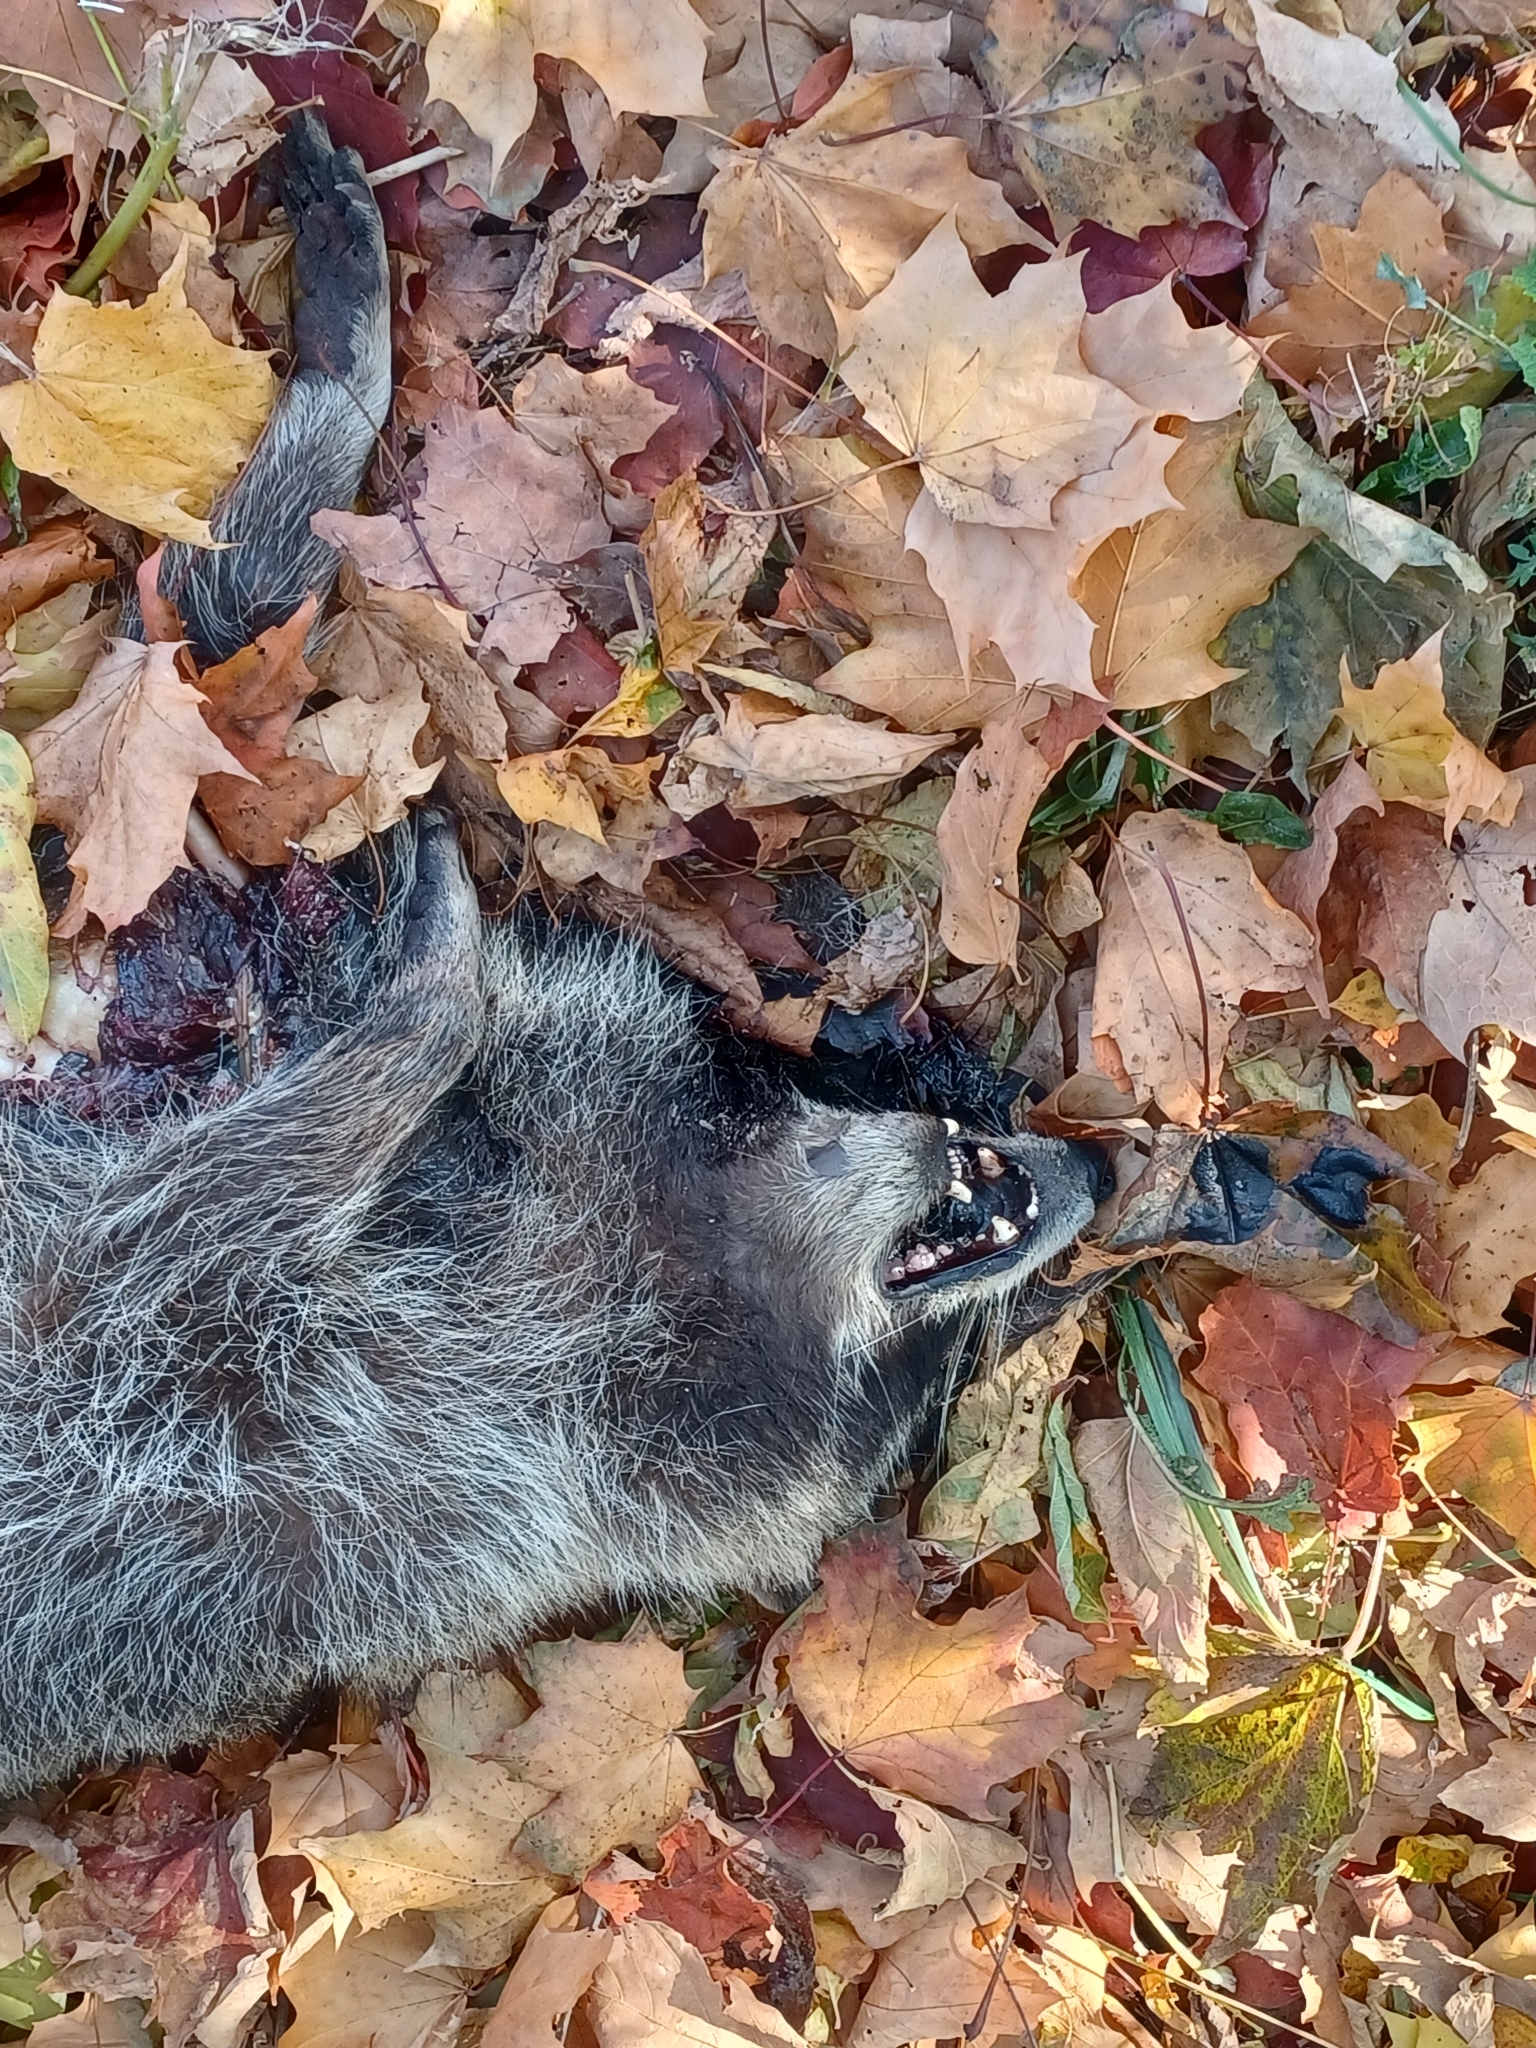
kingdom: Animalia
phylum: Chordata
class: Mammalia
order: Carnivora
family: Procyonidae
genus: Procyon
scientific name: Procyon lotor
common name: Raccoon
